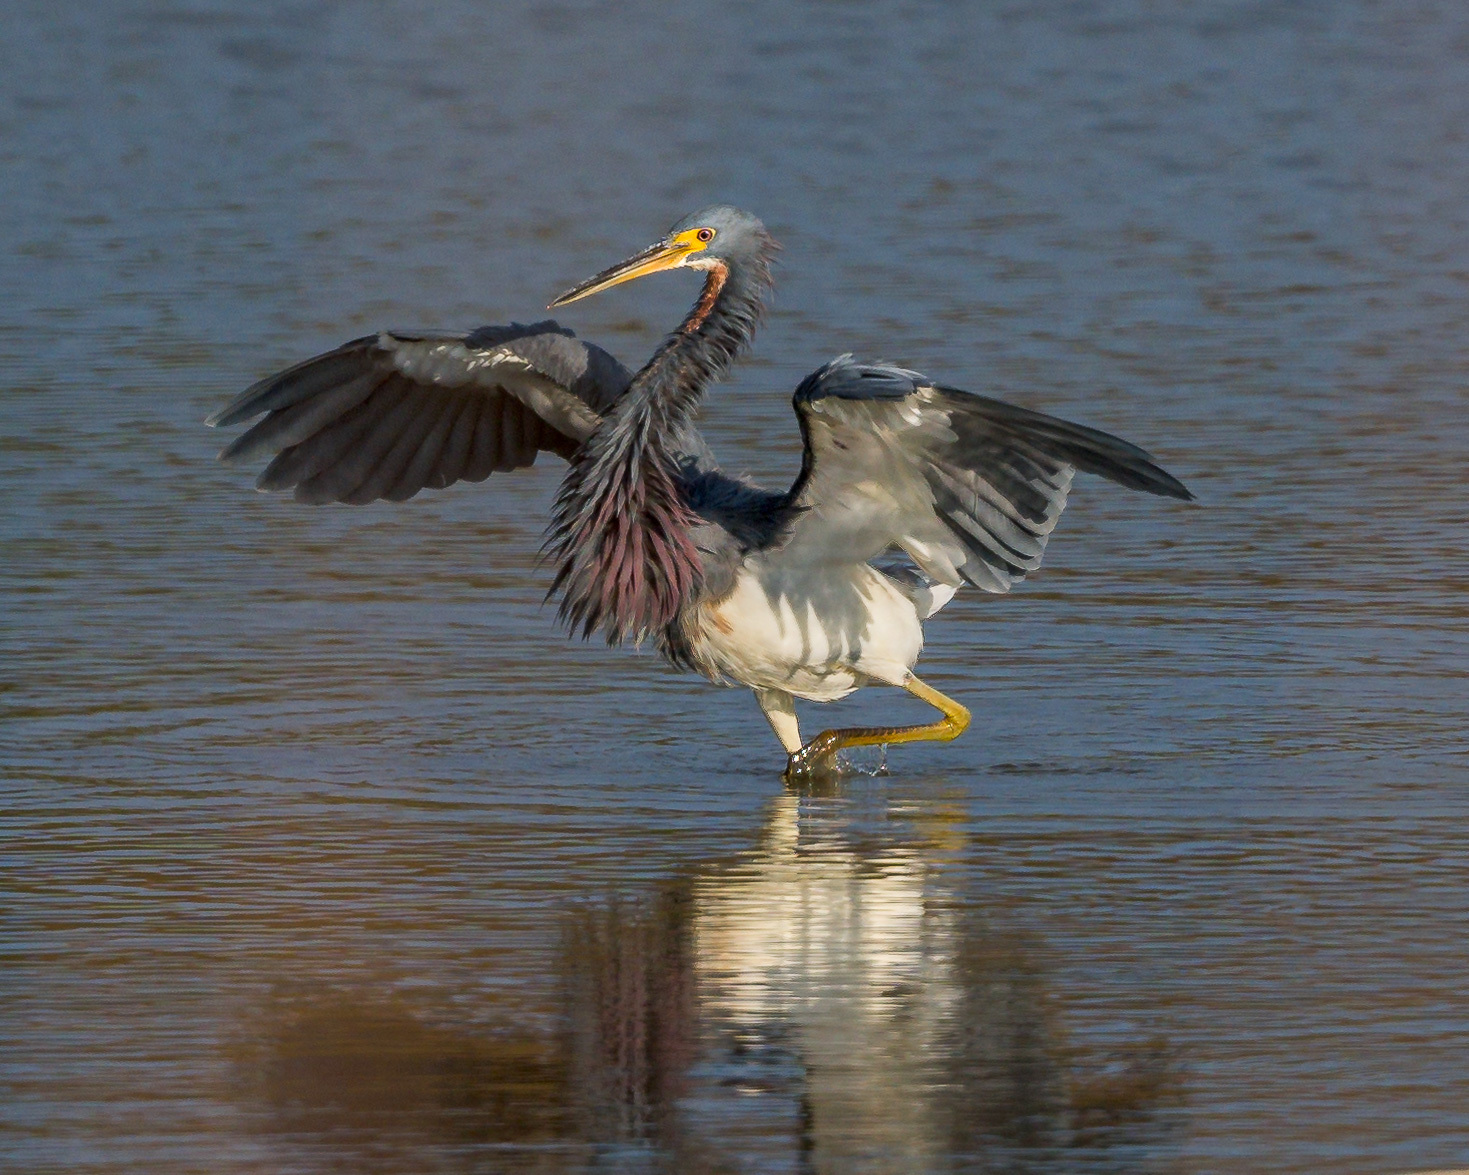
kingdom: Animalia
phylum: Chordata
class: Aves
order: Pelecaniformes
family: Ardeidae
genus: Egretta
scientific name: Egretta tricolor
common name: Tricolored heron
